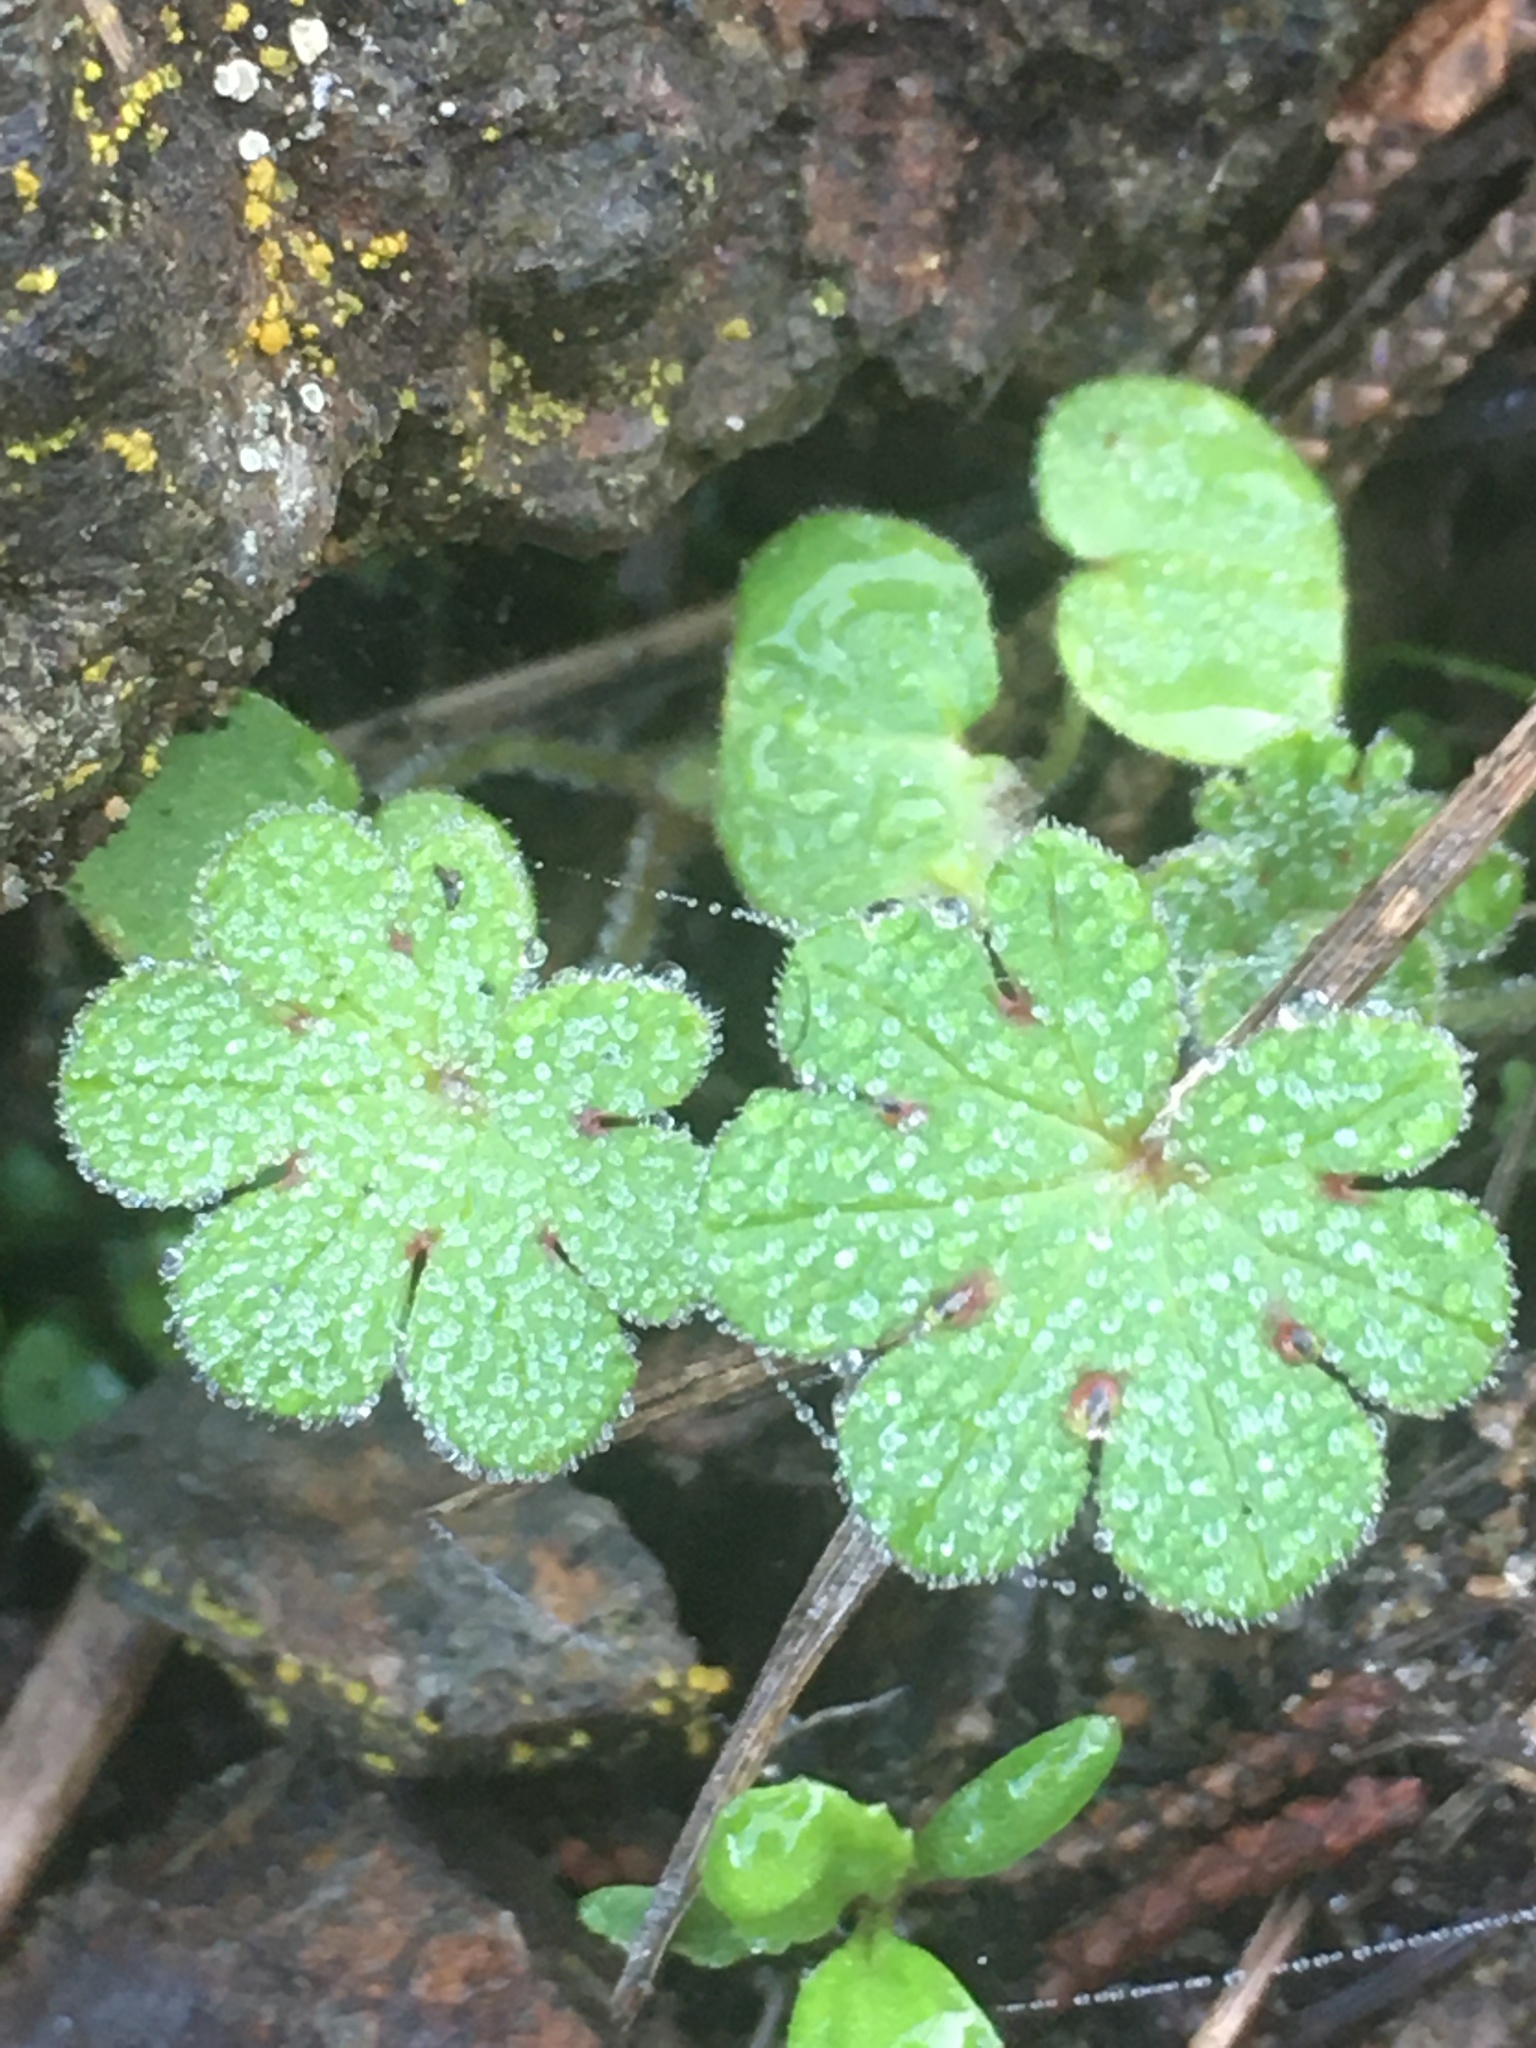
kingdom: Plantae
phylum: Tracheophyta
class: Magnoliopsida
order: Geraniales
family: Geraniaceae
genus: Geranium
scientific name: Geranium
